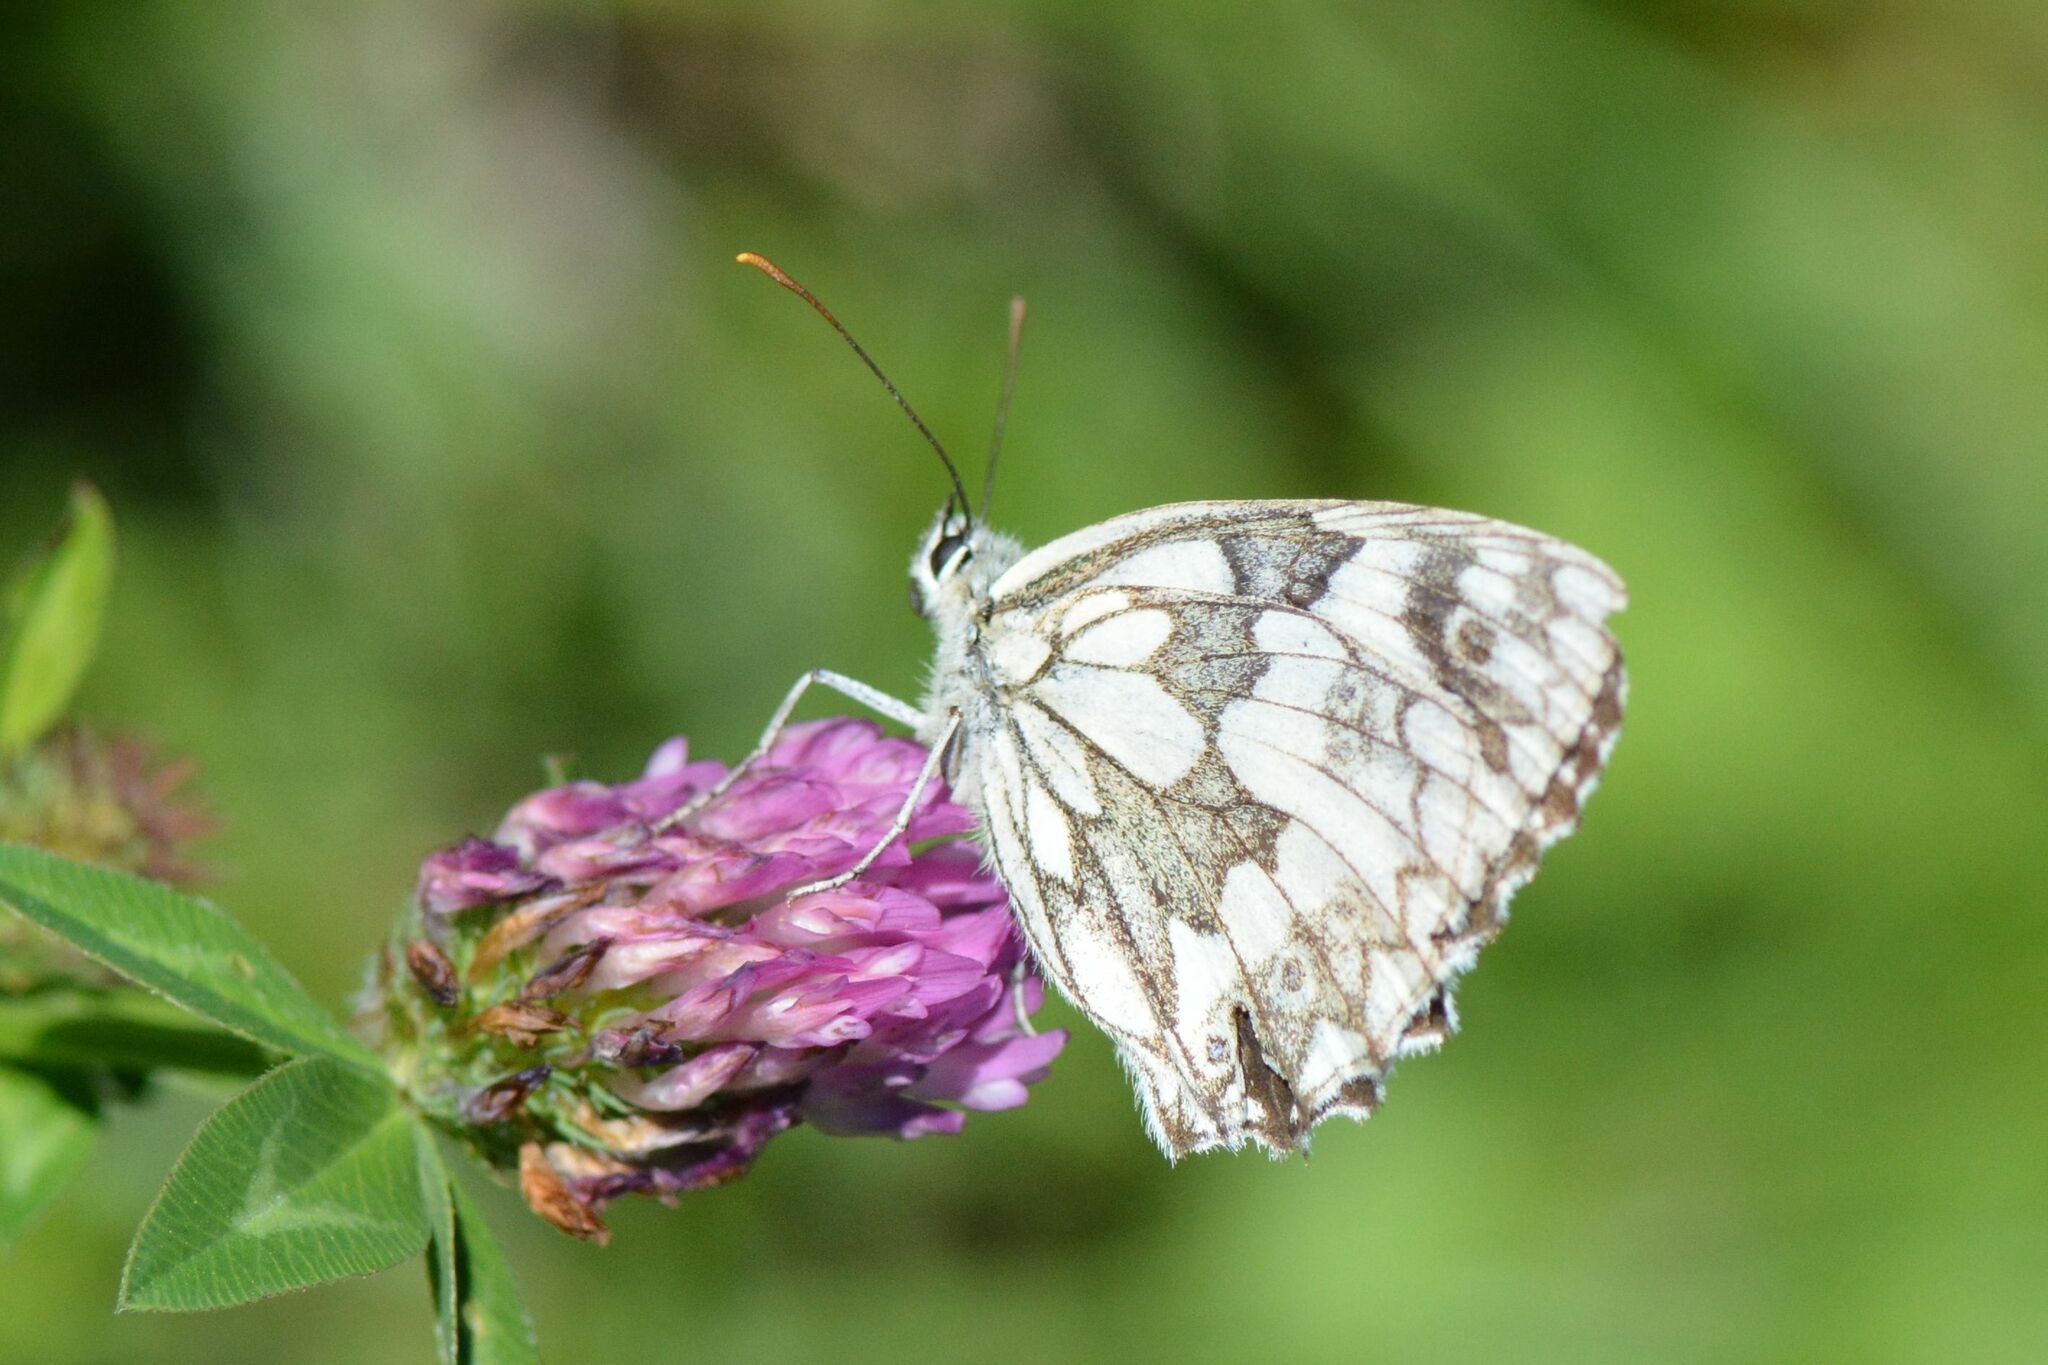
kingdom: Animalia
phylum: Arthropoda
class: Insecta
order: Lepidoptera
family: Nymphalidae
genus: Melanargia
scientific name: Melanargia galathea
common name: Marbled white
